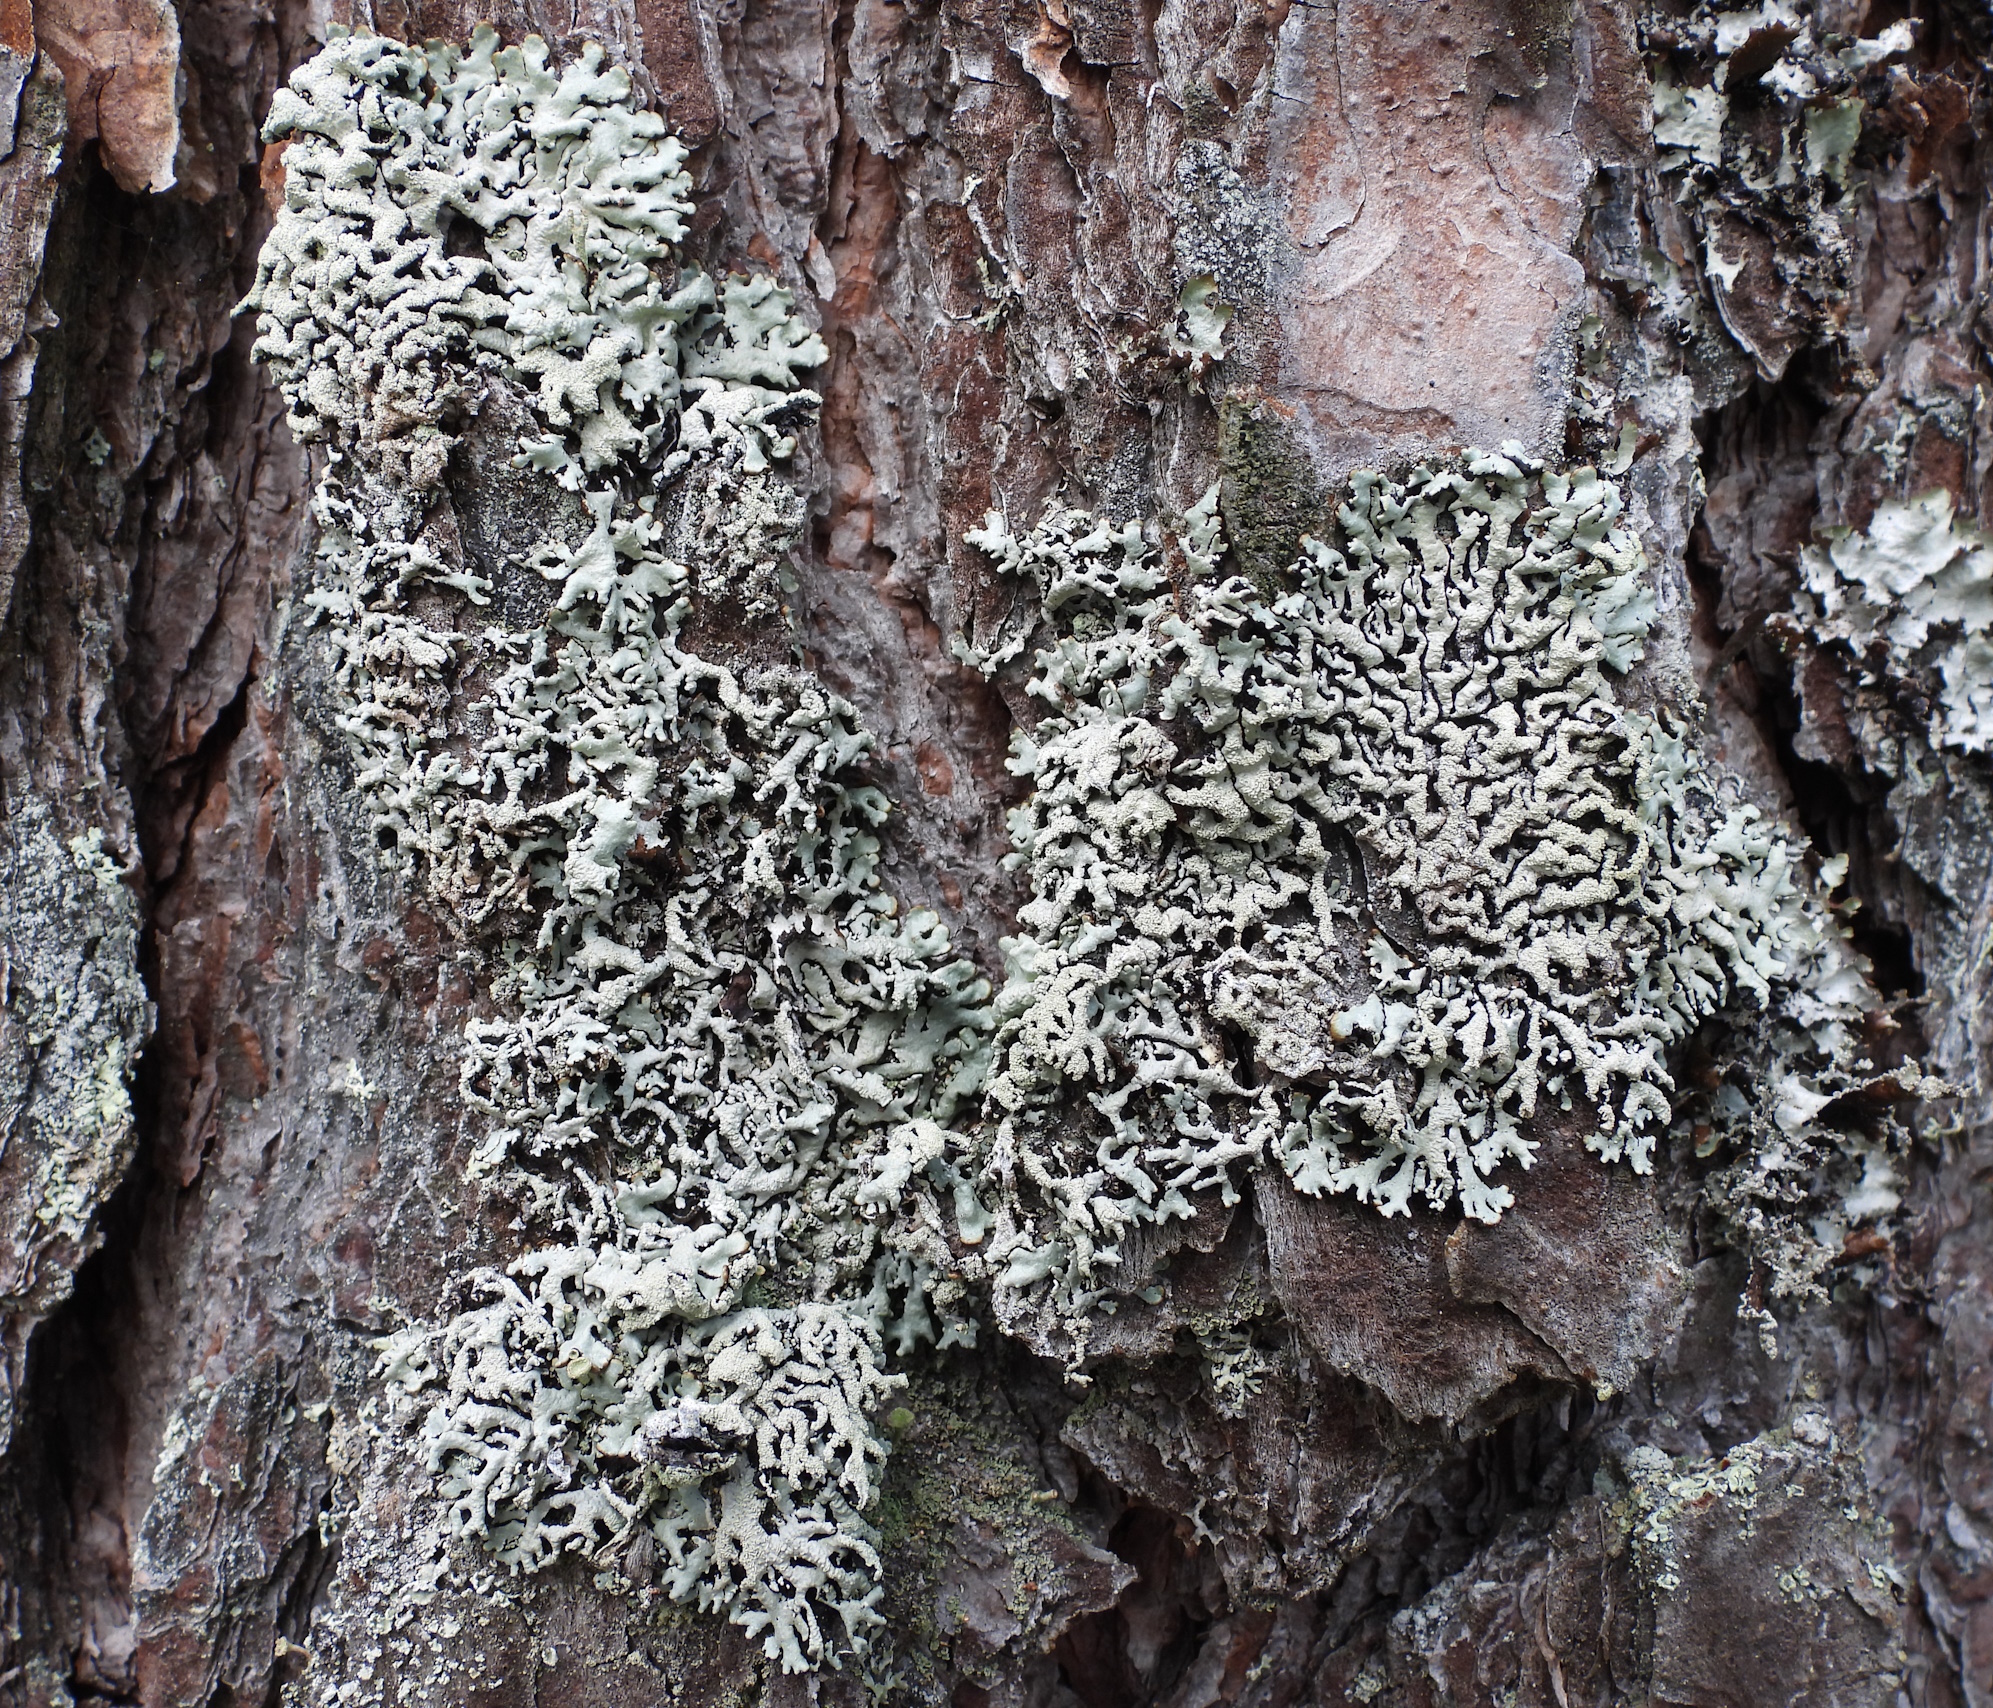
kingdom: Fungi
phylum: Ascomycota
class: Lecanoromycetes
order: Lecanorales
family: Parmeliaceae
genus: Hypogymnia
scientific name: Hypogymnia farinacea
